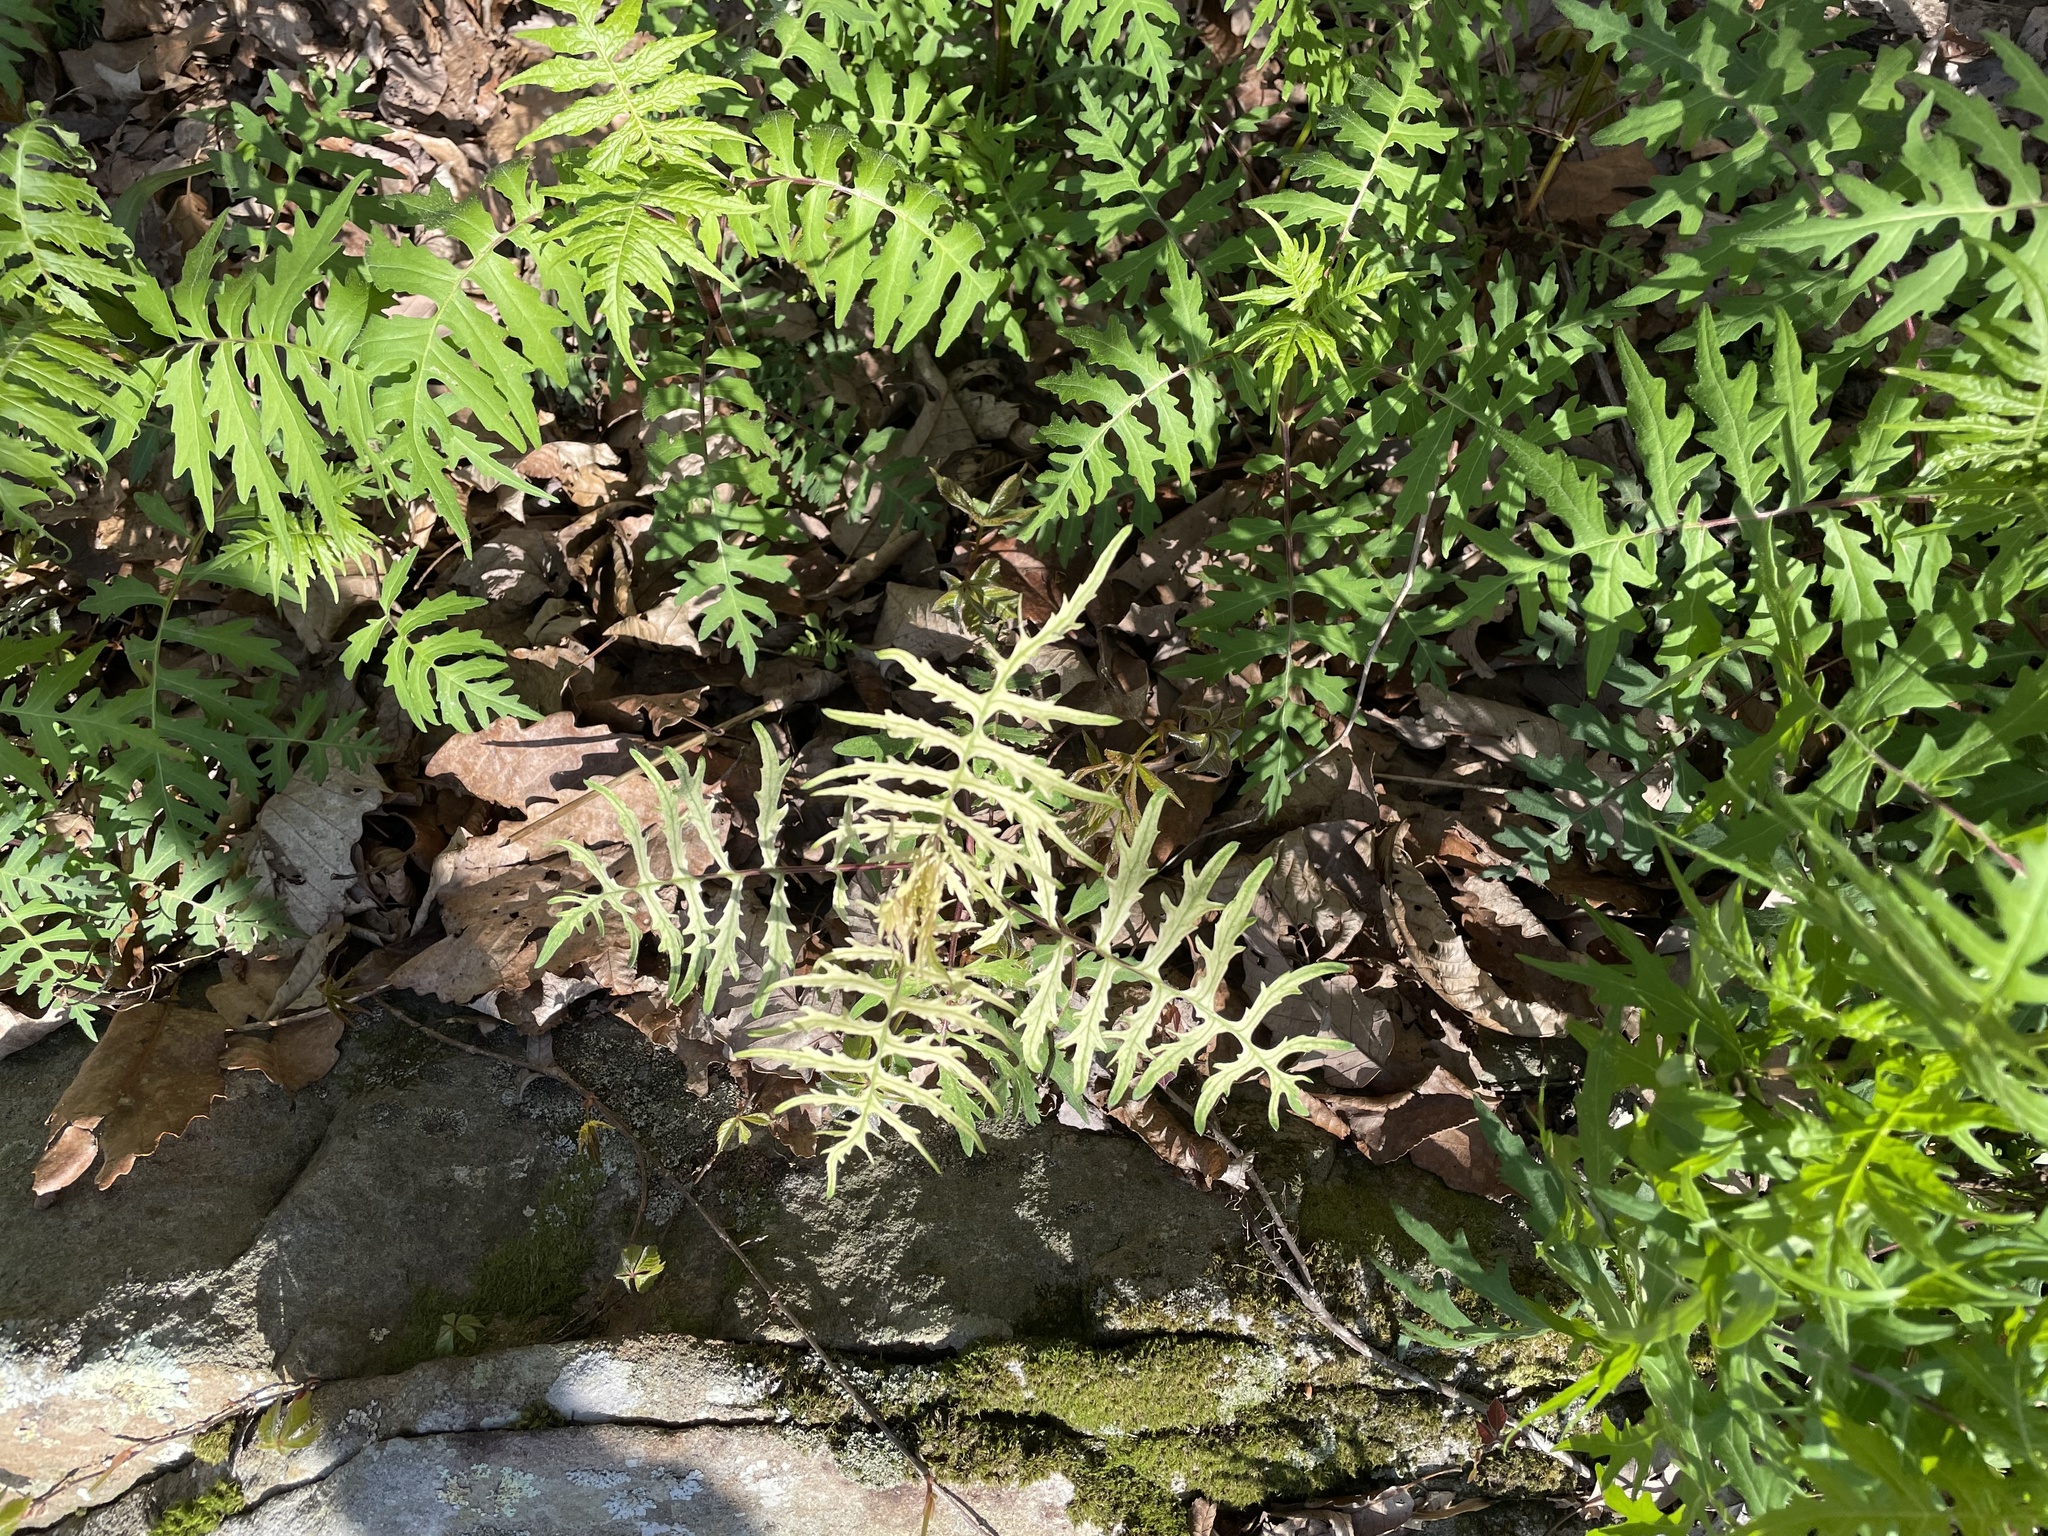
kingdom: Plantae
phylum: Tracheophyta
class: Magnoliopsida
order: Asterales
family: Asteraceae
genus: Polymnia
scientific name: Polymnia laevigata
